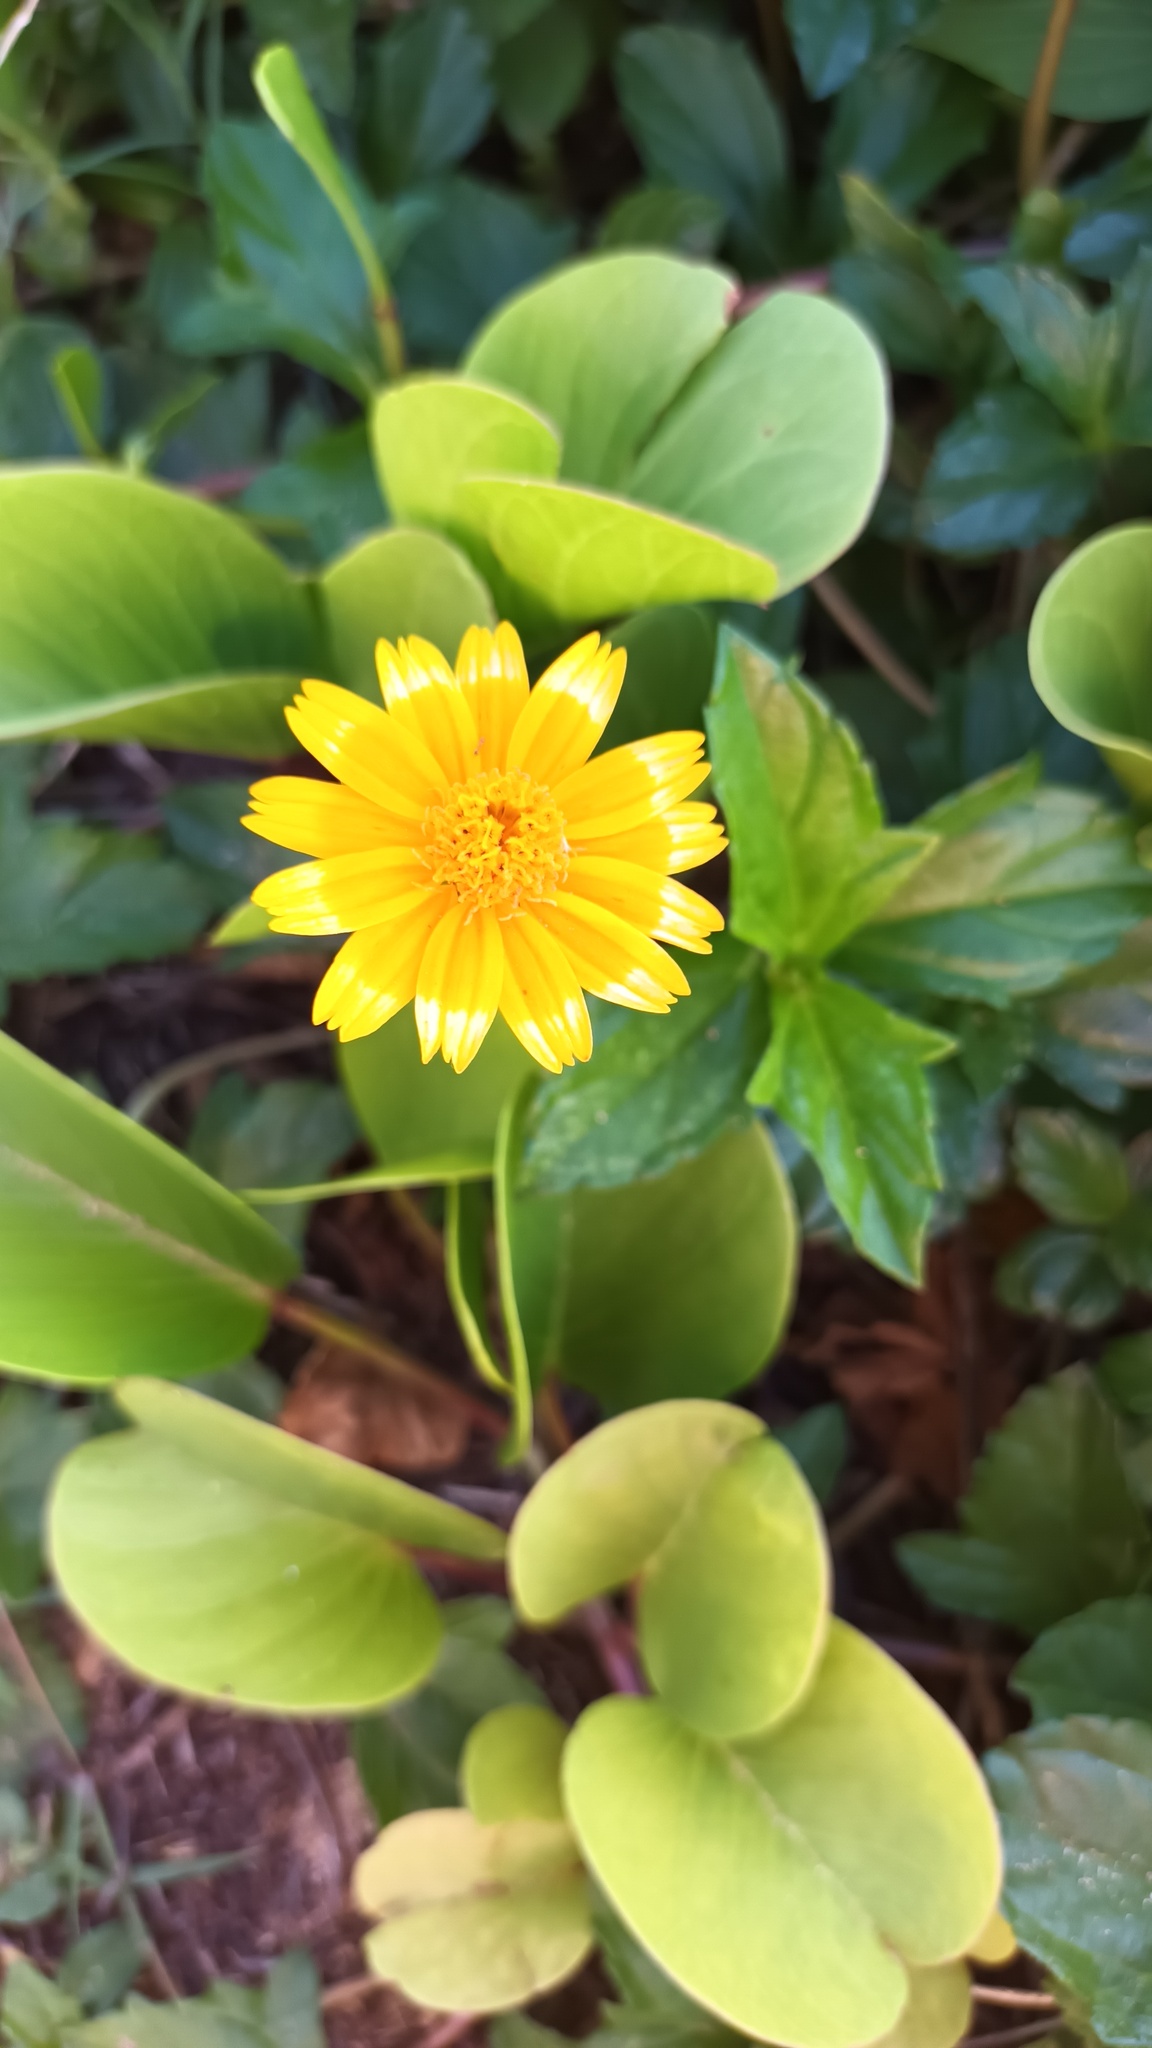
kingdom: Plantae
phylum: Tracheophyta
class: Magnoliopsida
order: Asterales
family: Asteraceae
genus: Sphagneticola
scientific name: Sphagneticola trilobata
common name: Bay biscayne creeping-oxeye
